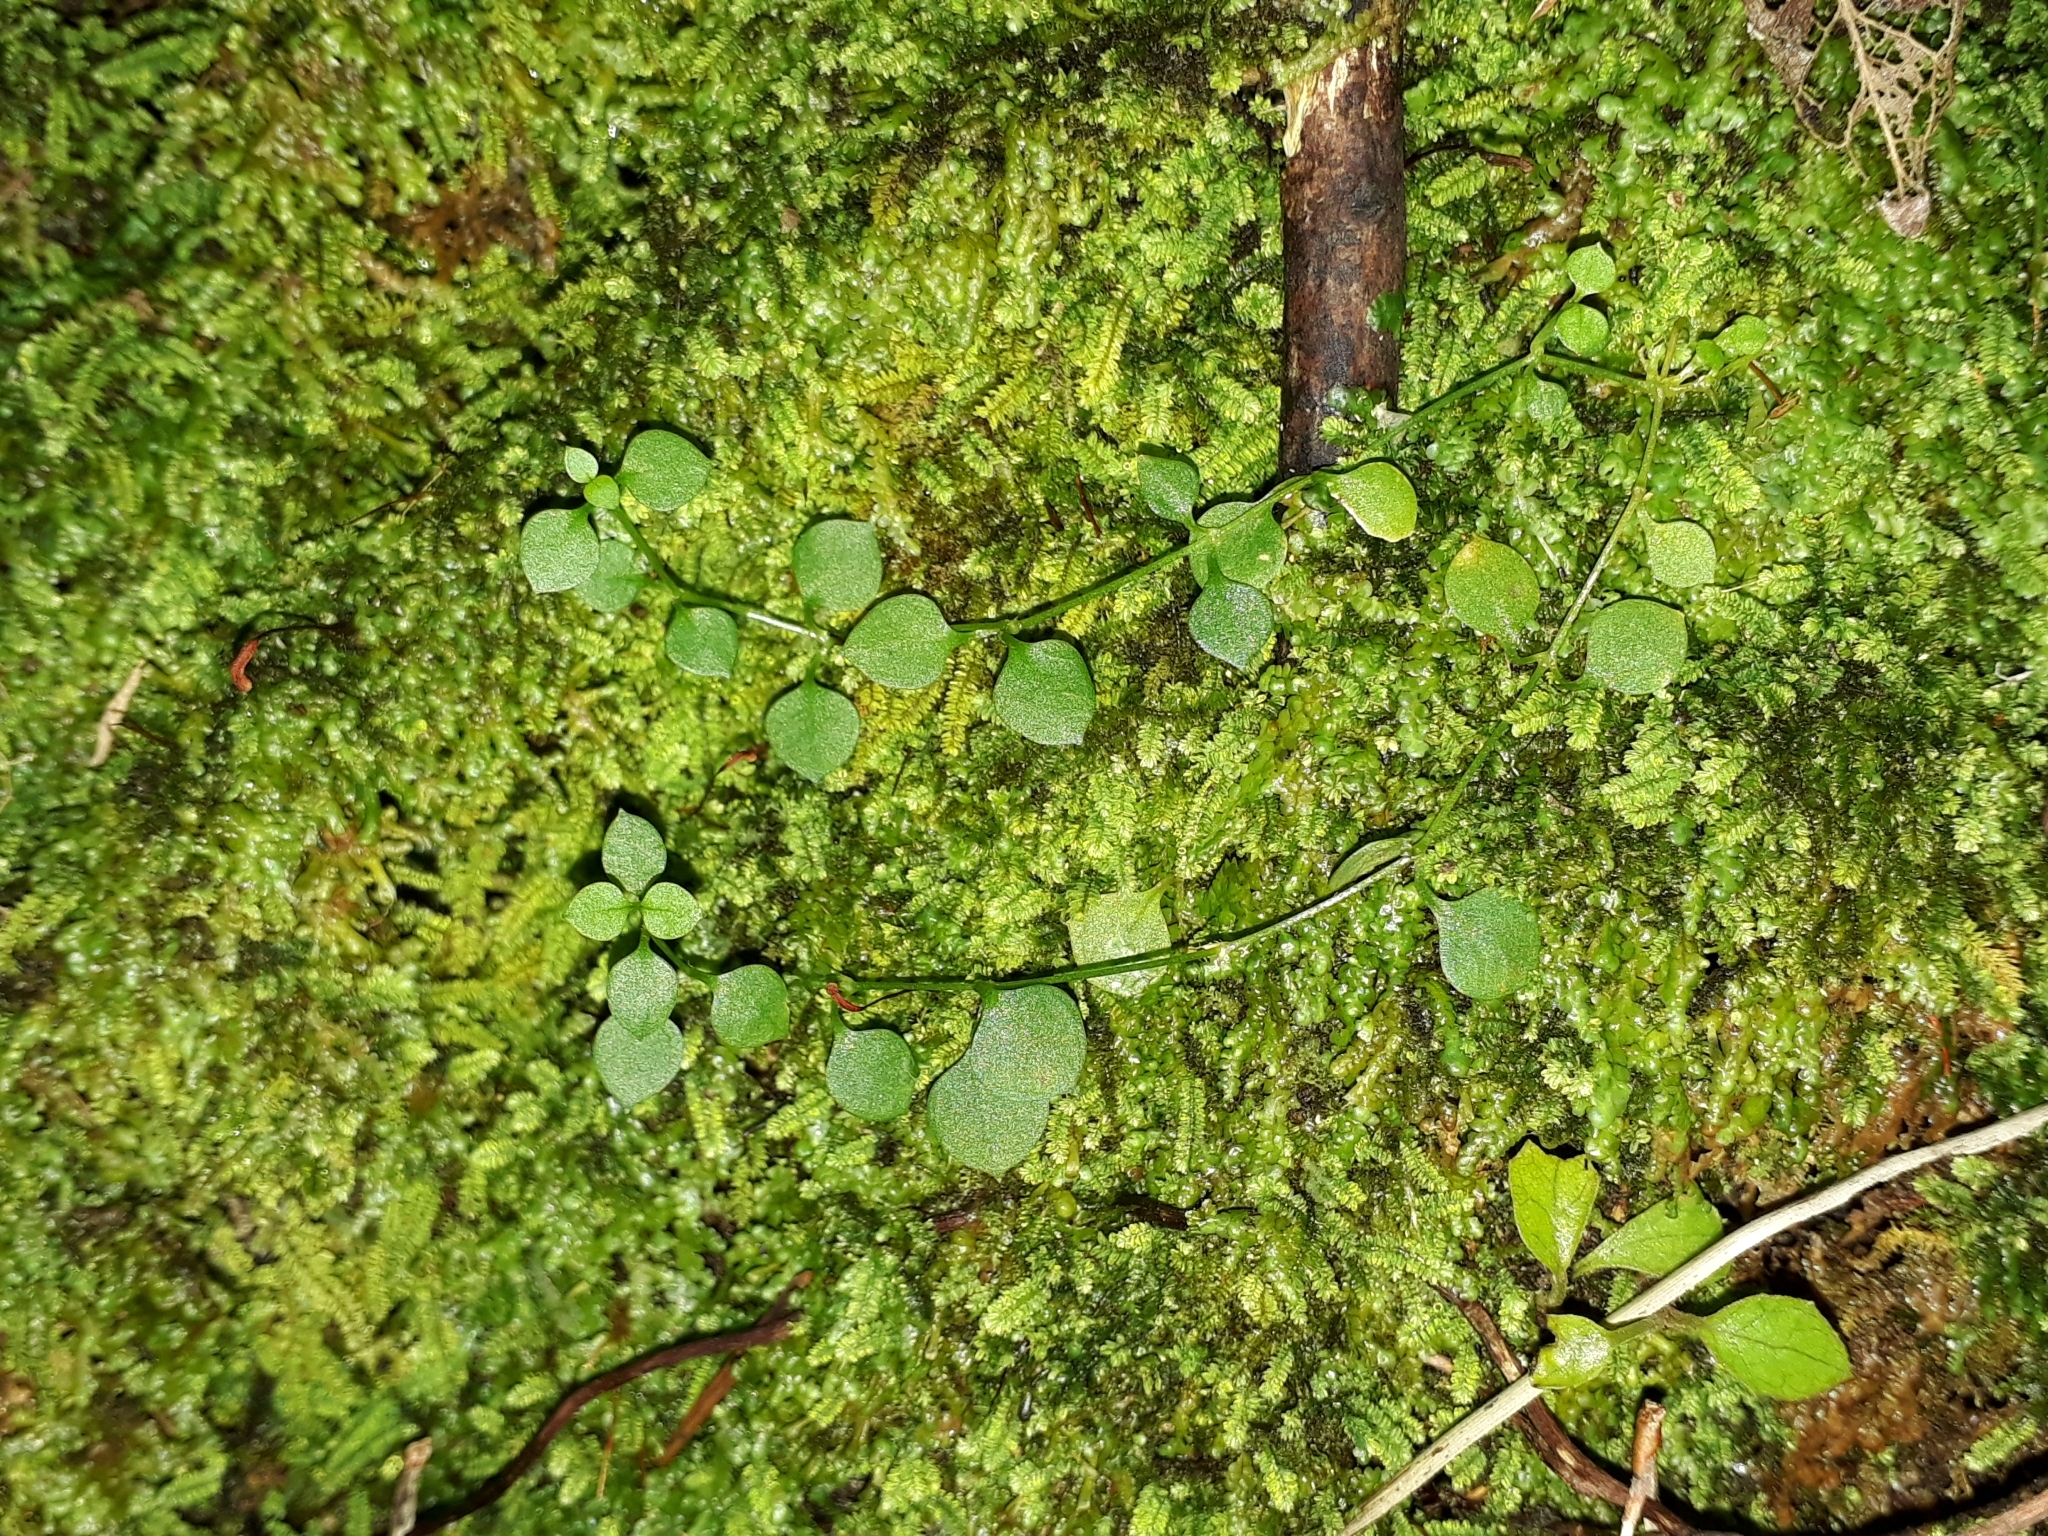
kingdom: Plantae
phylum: Tracheophyta
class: Magnoliopsida
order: Caryophyllales
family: Caryophyllaceae
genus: Stellaria
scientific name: Stellaria parviflora
